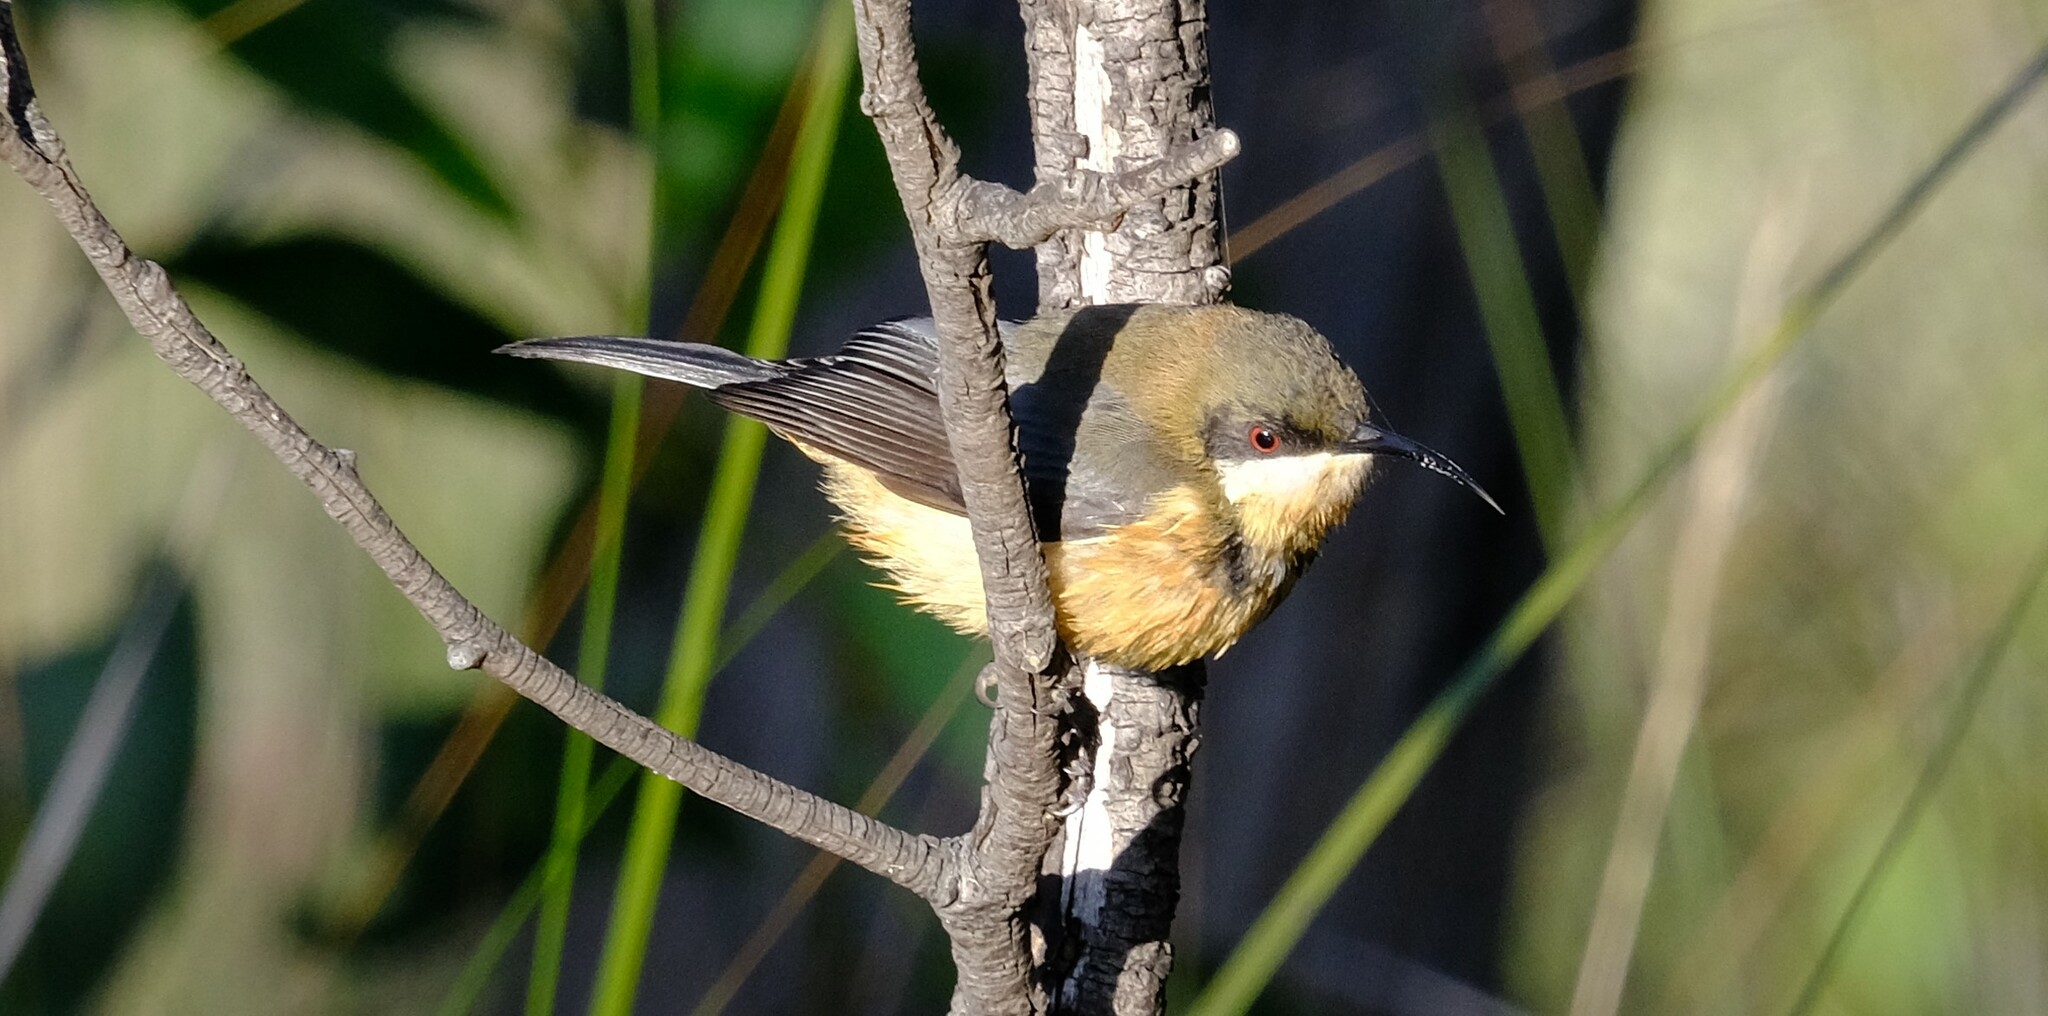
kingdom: Animalia
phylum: Chordata
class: Aves
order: Passeriformes
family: Meliphagidae
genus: Acanthorhynchus
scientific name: Acanthorhynchus tenuirostris
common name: Eastern spinebill
